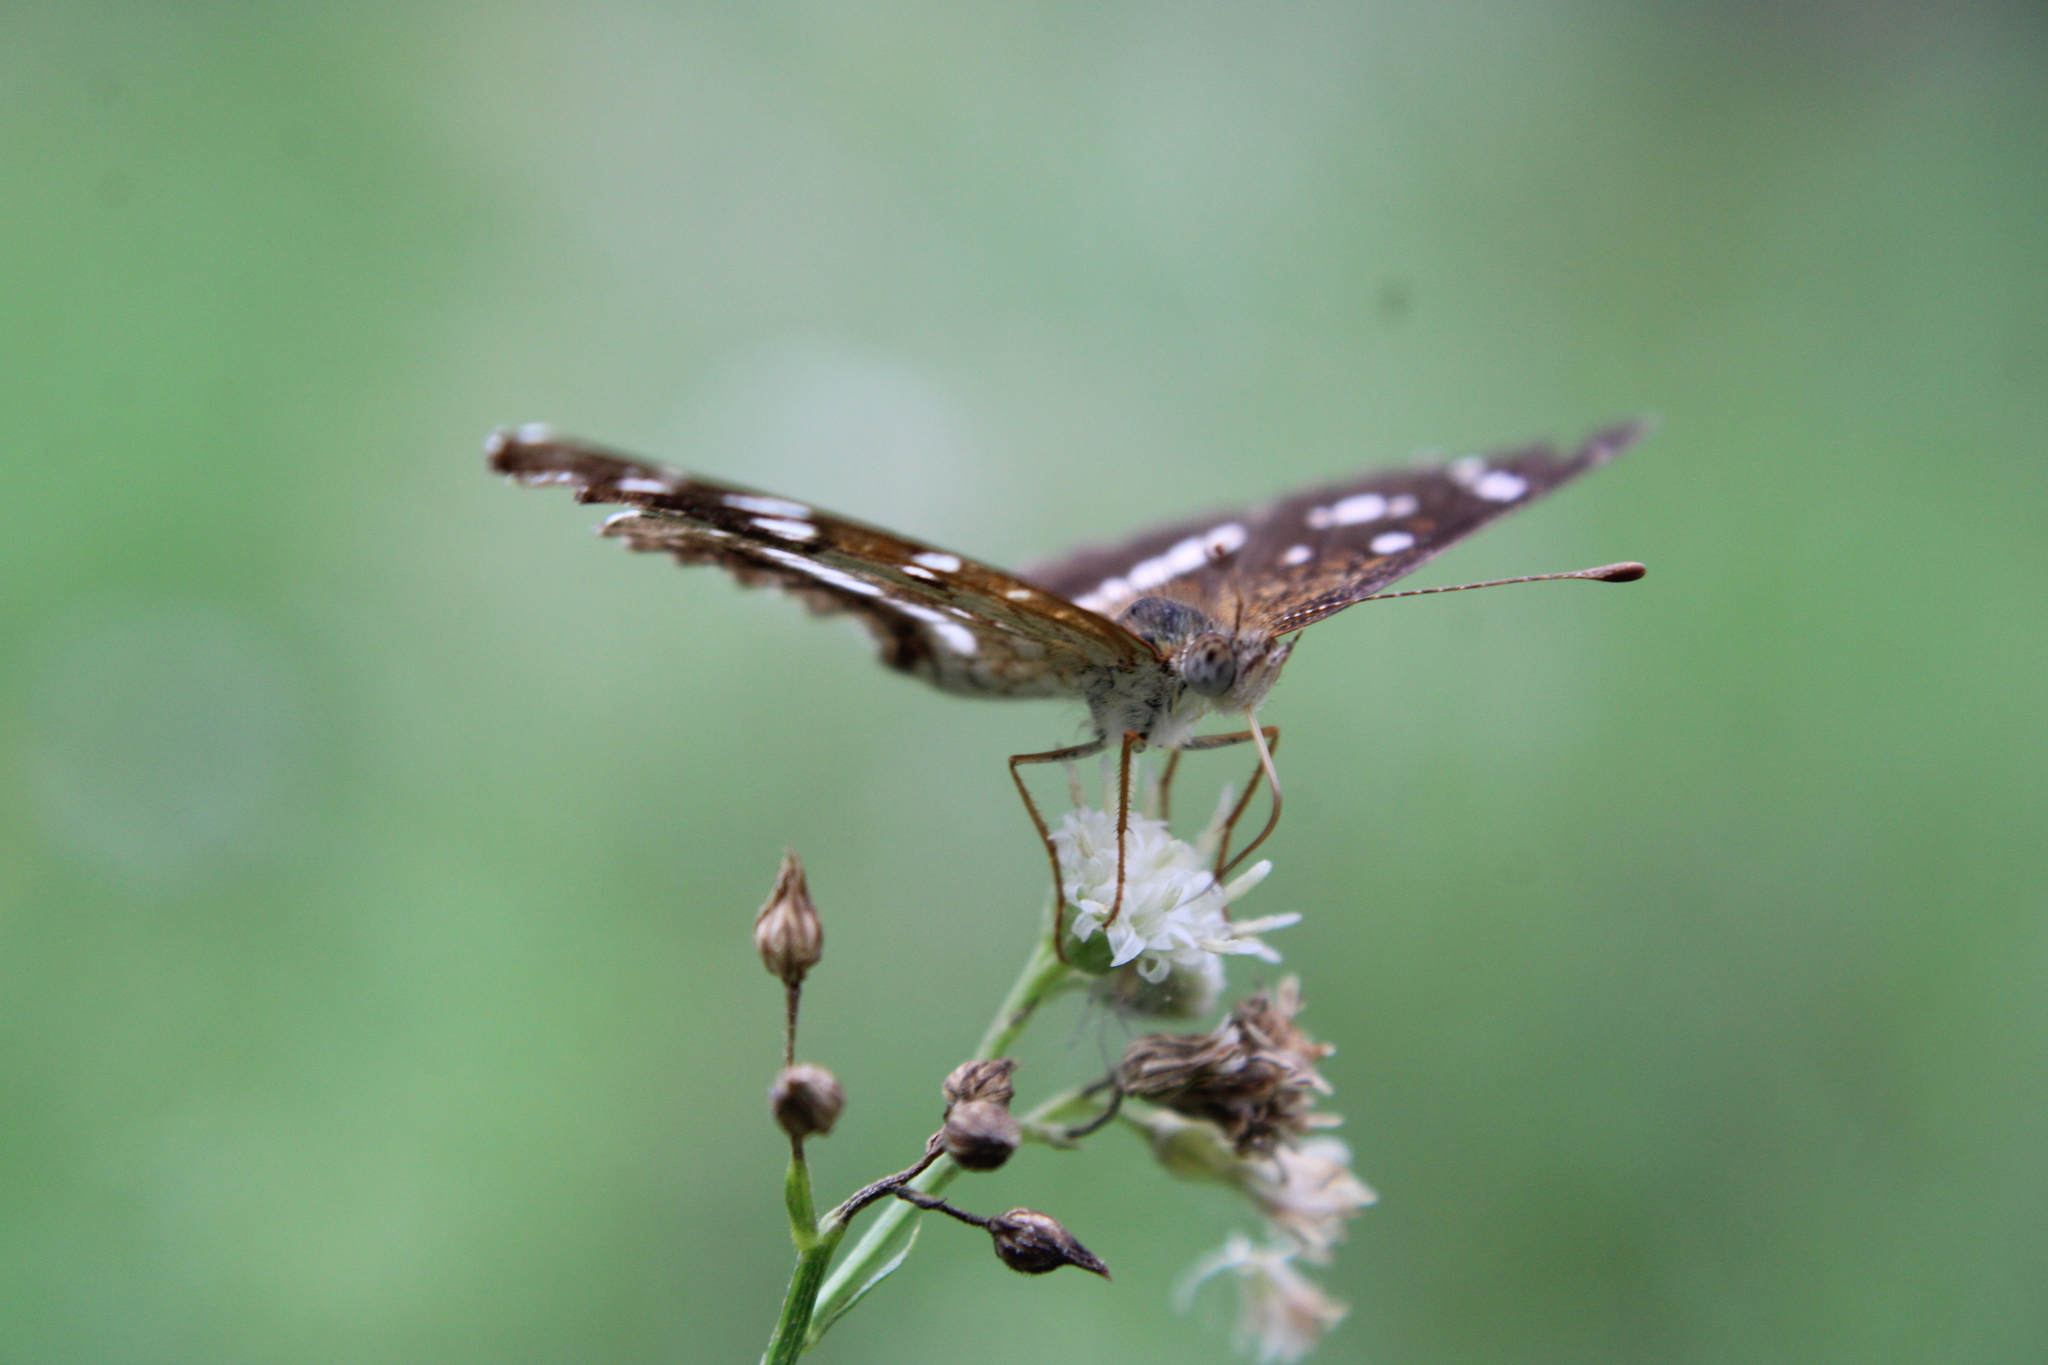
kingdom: Animalia
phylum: Arthropoda
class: Insecta
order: Lepidoptera
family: Nymphalidae
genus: Ortilia
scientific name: Ortilia ithra
